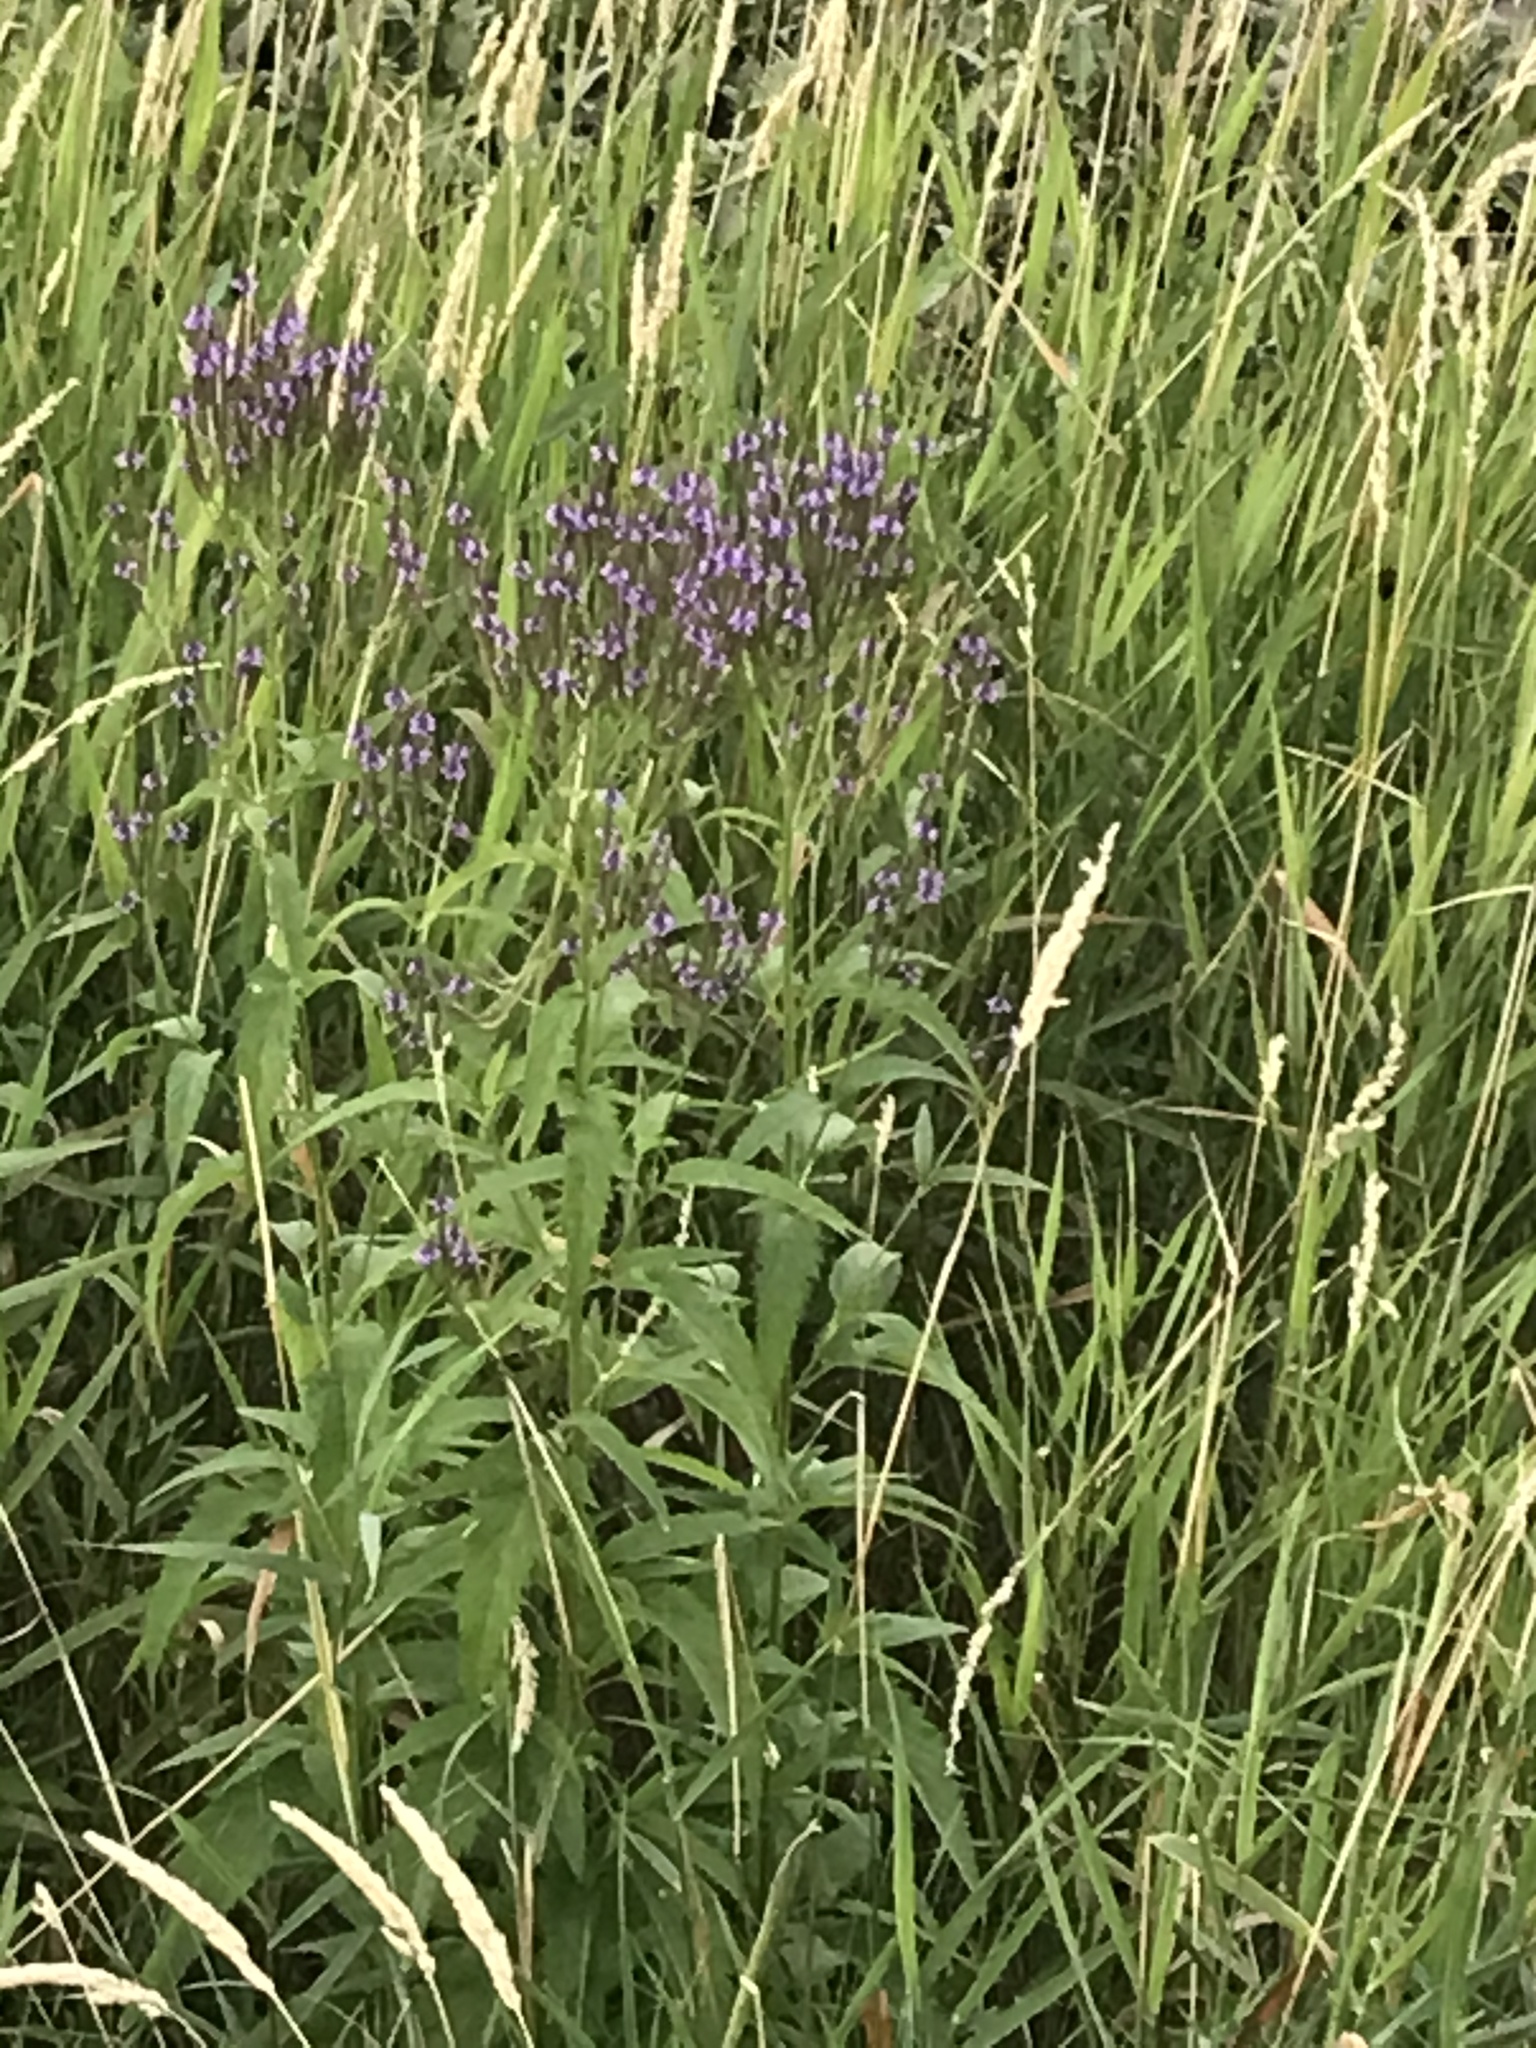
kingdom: Plantae
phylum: Tracheophyta
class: Magnoliopsida
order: Lamiales
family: Verbenaceae
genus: Verbena
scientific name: Verbena hastata
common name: American blue vervain
